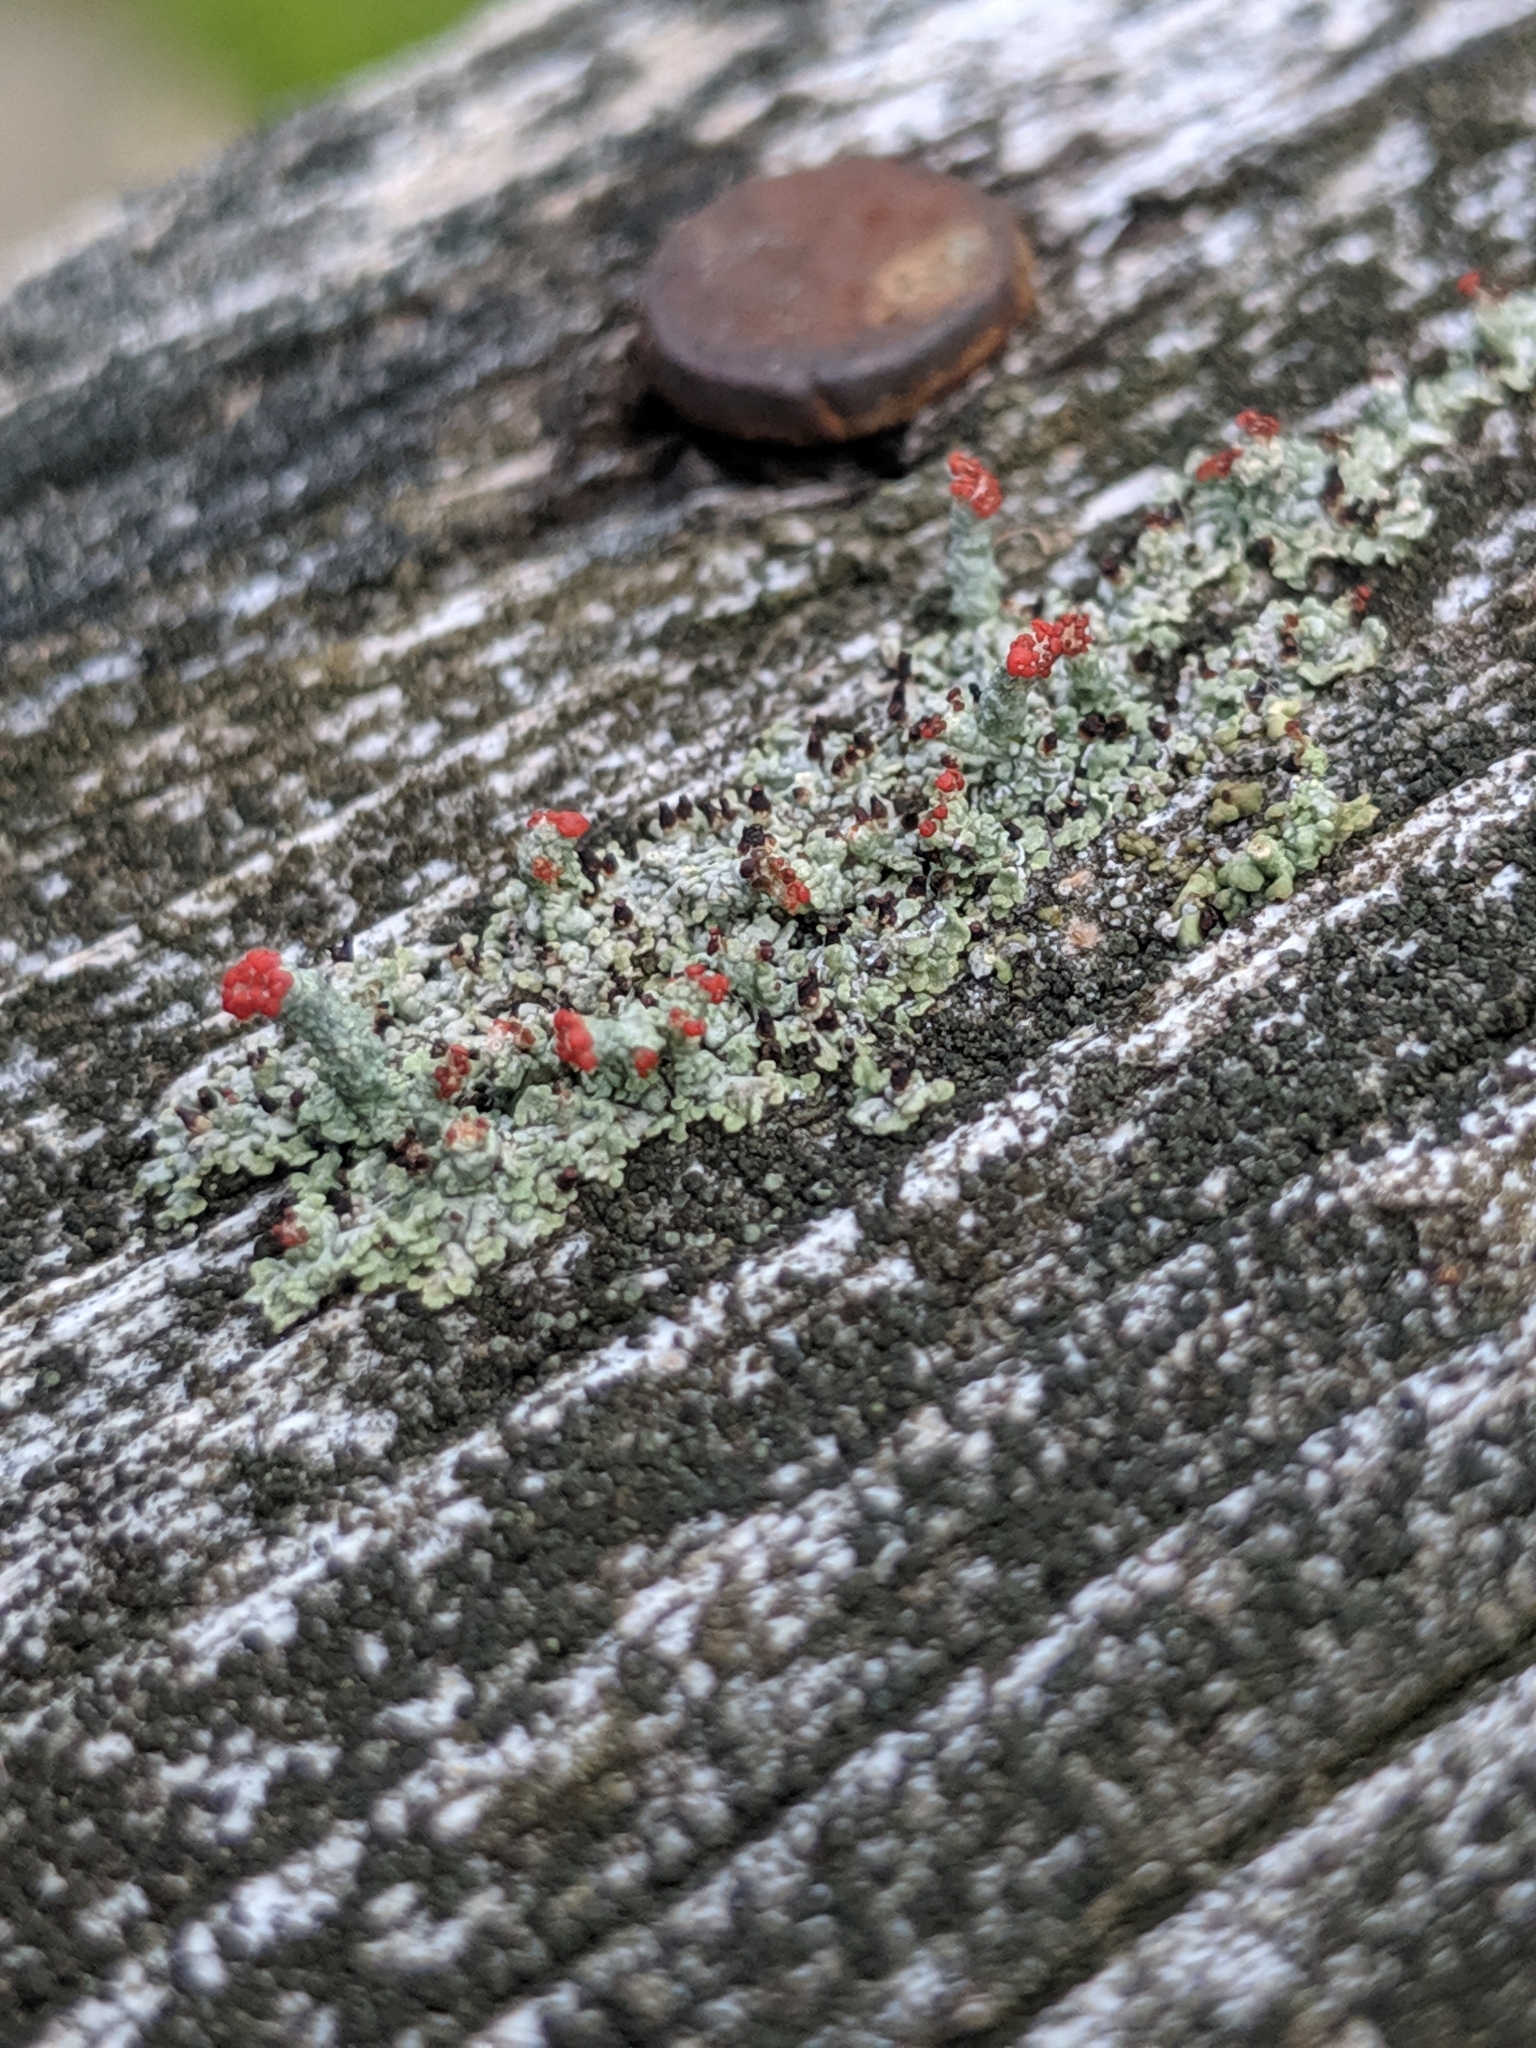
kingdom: Fungi
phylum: Ascomycota
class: Lecanoromycetes
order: Lecanorales
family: Cladoniaceae
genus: Cladonia
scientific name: Cladonia cristatella
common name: British soldier lichen
